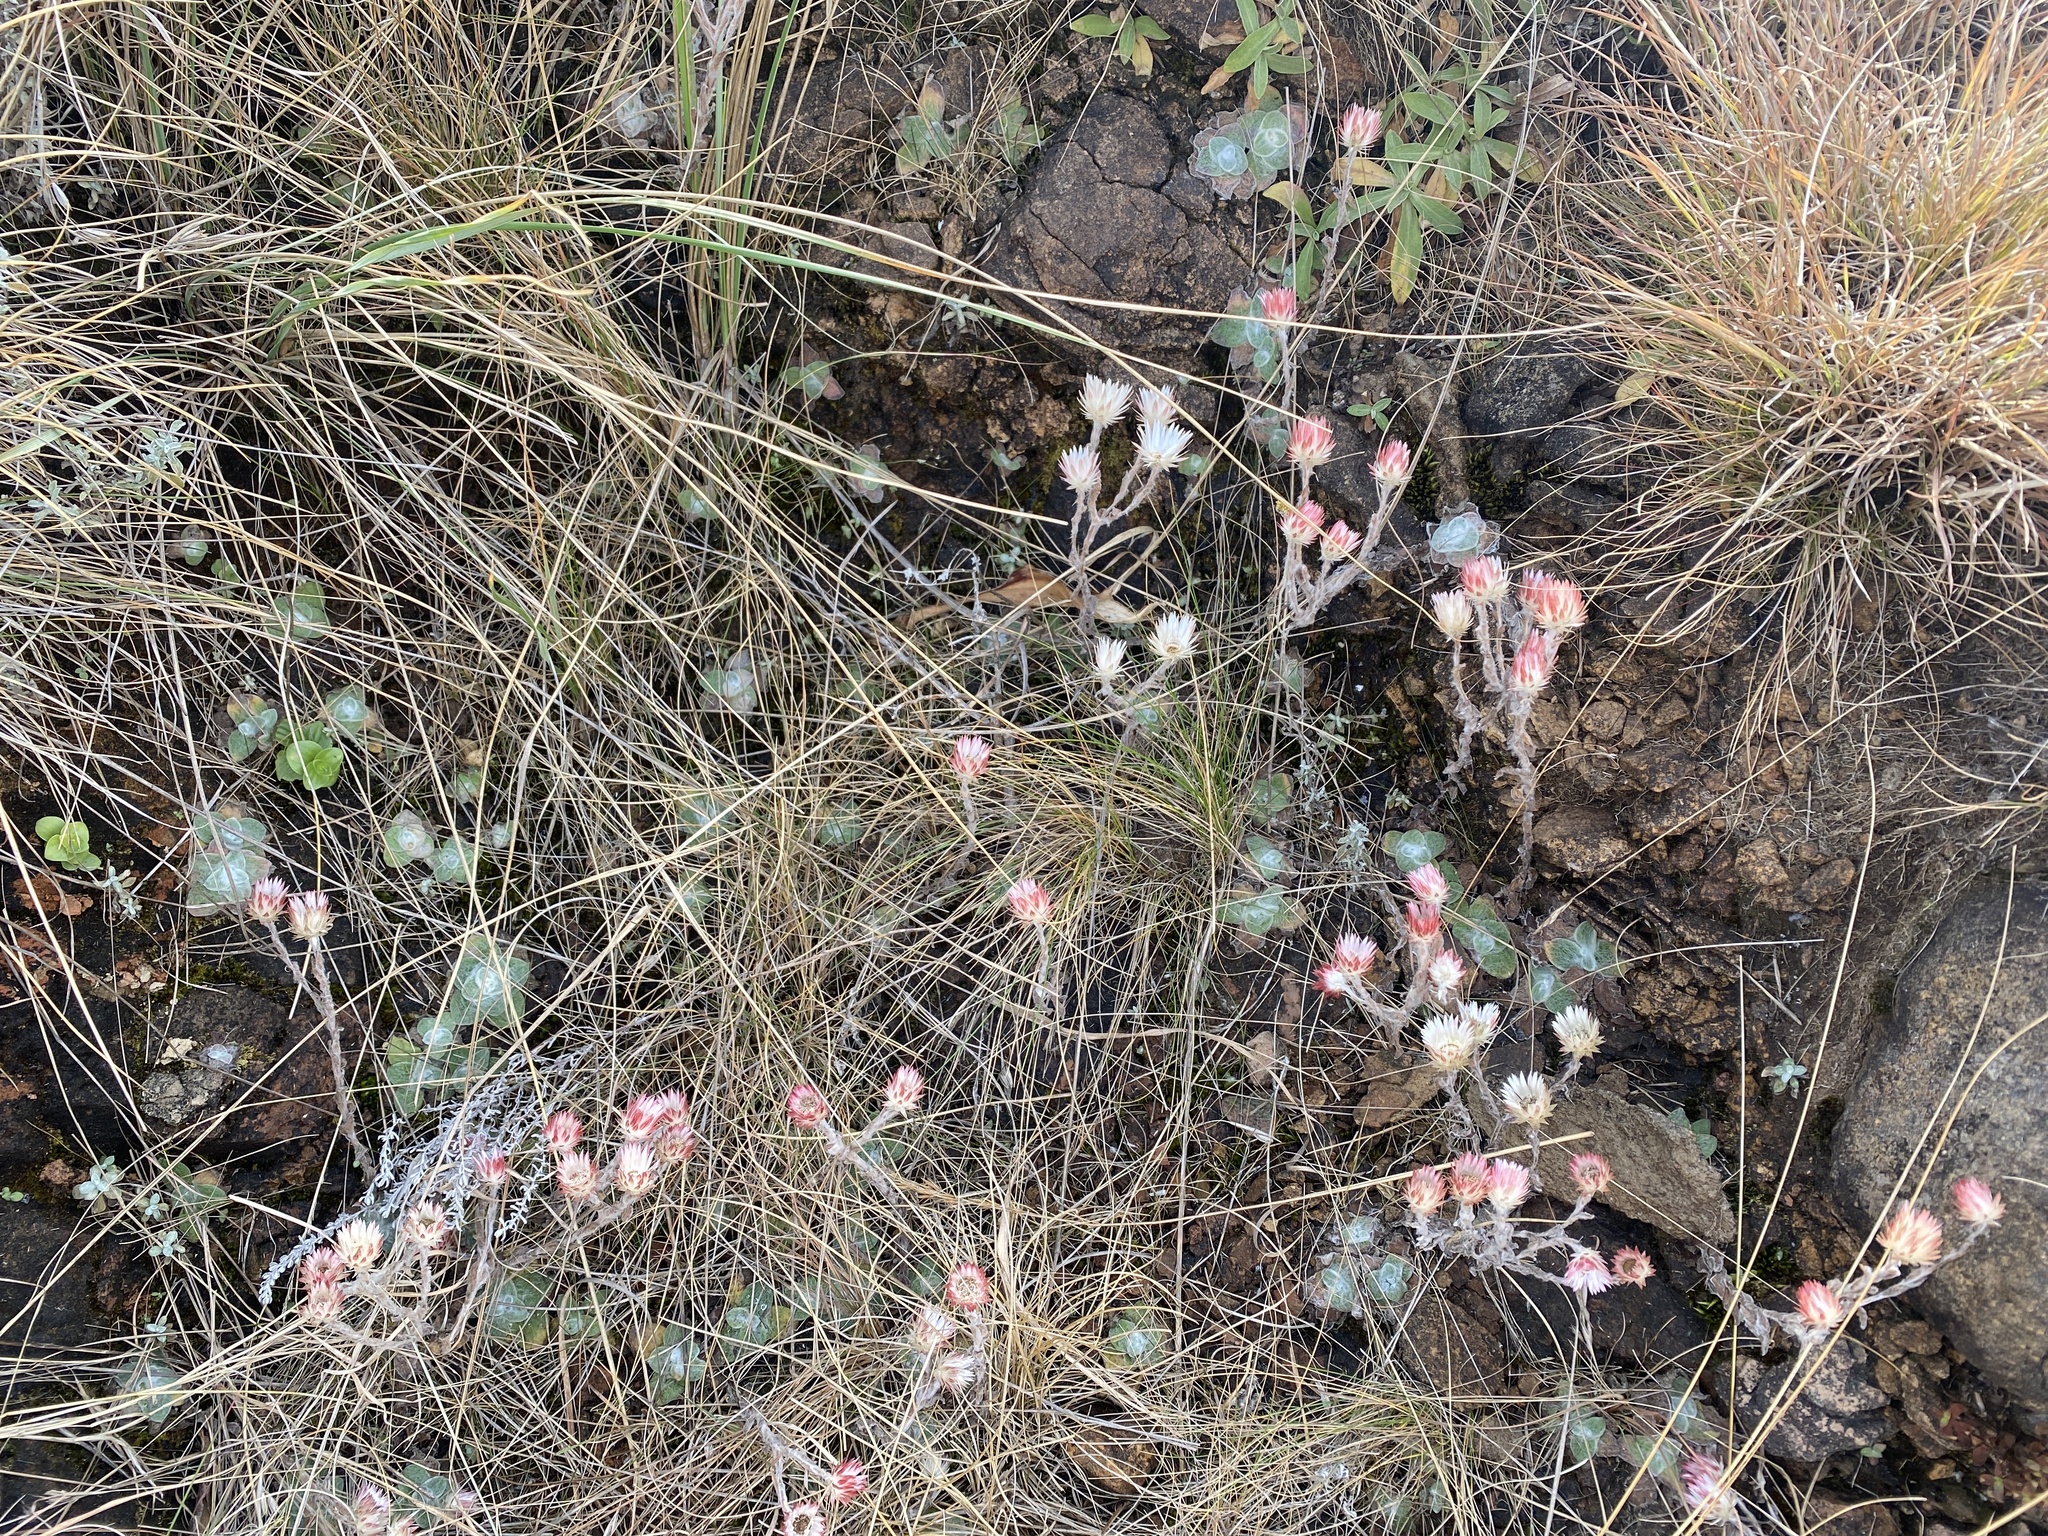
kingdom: Plantae
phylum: Tracheophyta
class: Magnoliopsida
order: Asterales
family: Asteraceae
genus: Helichrysum
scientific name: Helichrysum adenocarpum
